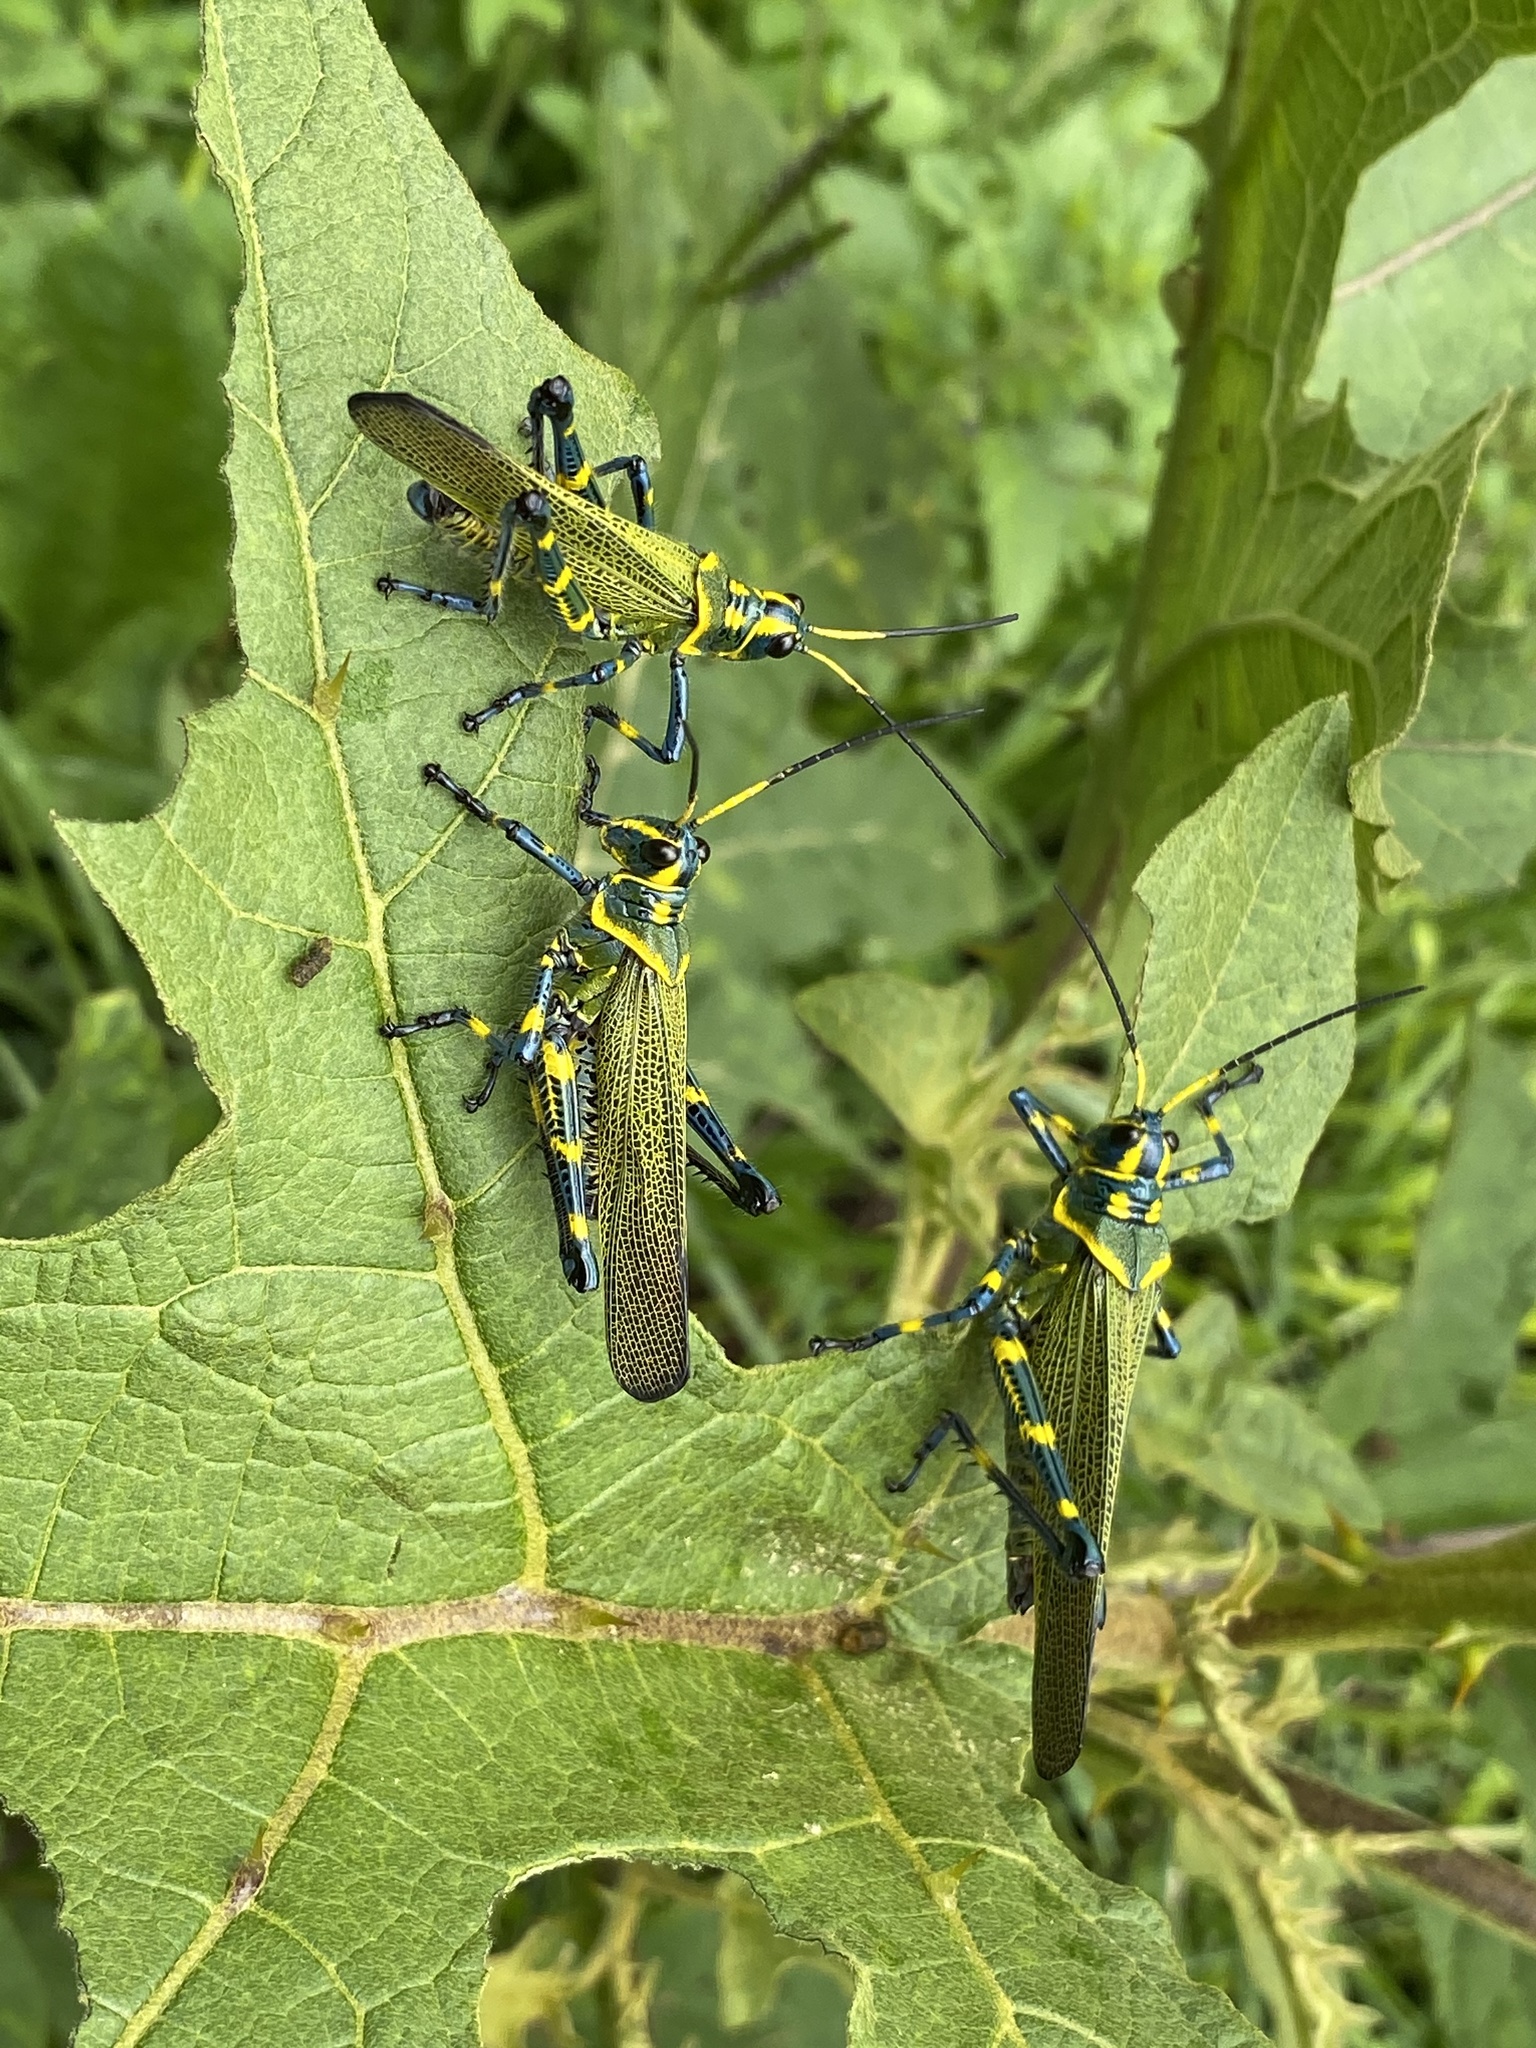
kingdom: Animalia
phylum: Arthropoda
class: Insecta
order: Orthoptera
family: Romaleidae
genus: Chromacris
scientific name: Chromacris colorata
